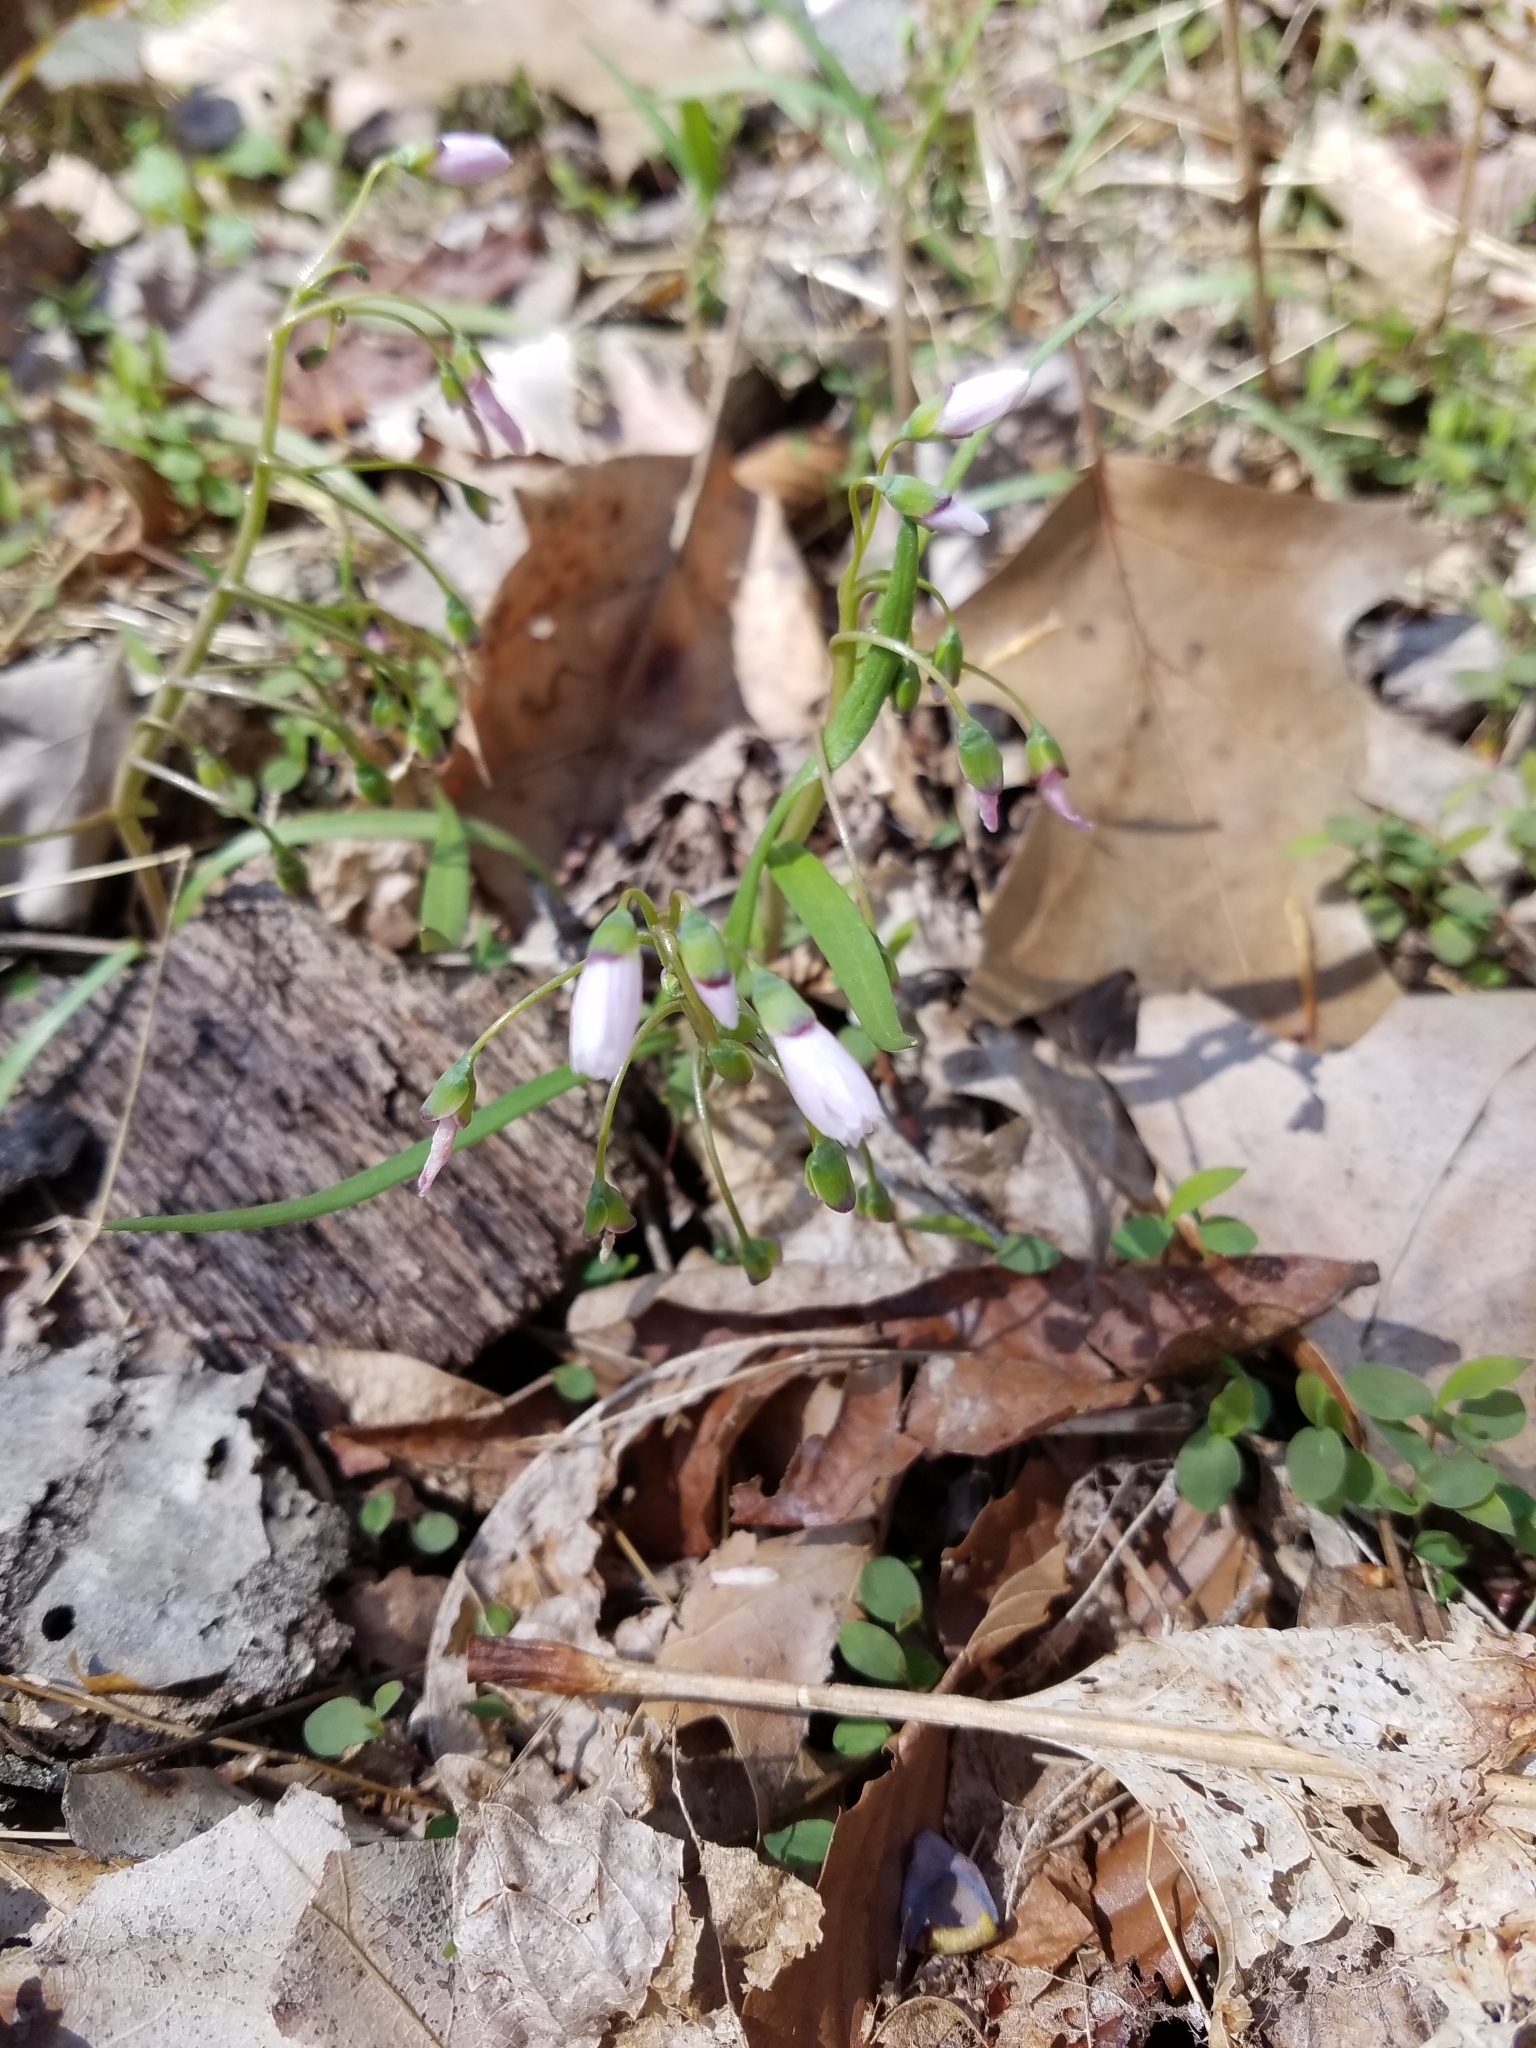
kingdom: Plantae
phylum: Tracheophyta
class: Magnoliopsida
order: Caryophyllales
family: Montiaceae
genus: Claytonia
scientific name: Claytonia virginica
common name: Virginia springbeauty
